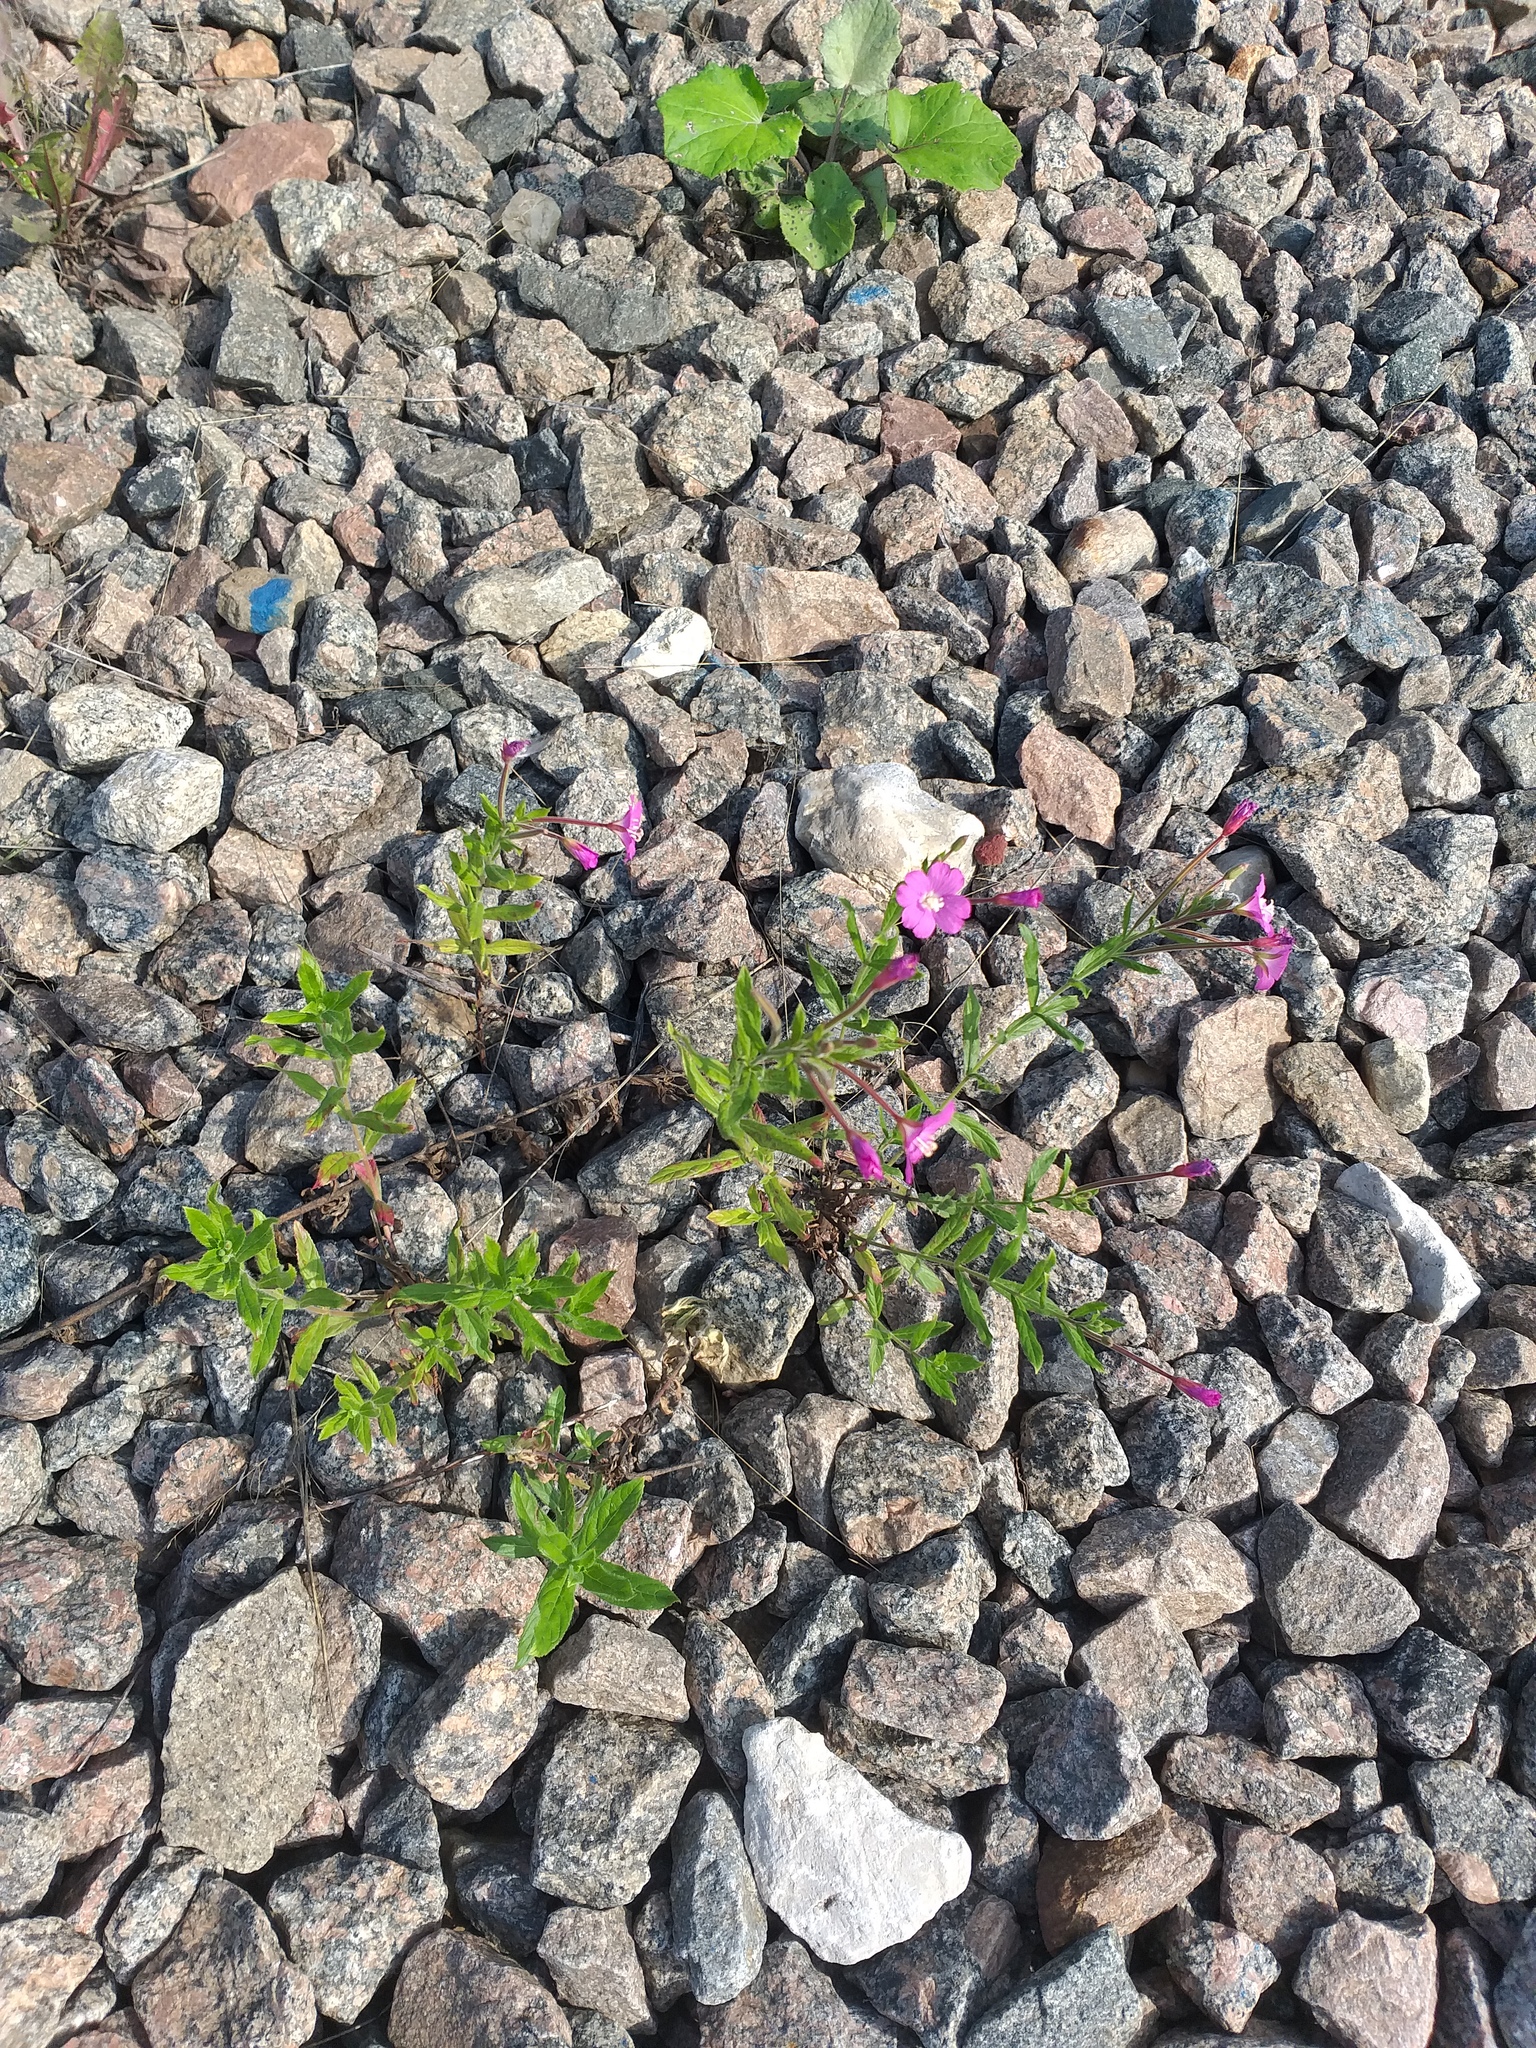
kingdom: Plantae
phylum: Tracheophyta
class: Magnoliopsida
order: Myrtales
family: Onagraceae
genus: Epilobium
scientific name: Epilobium hirsutum
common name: Great willowherb
